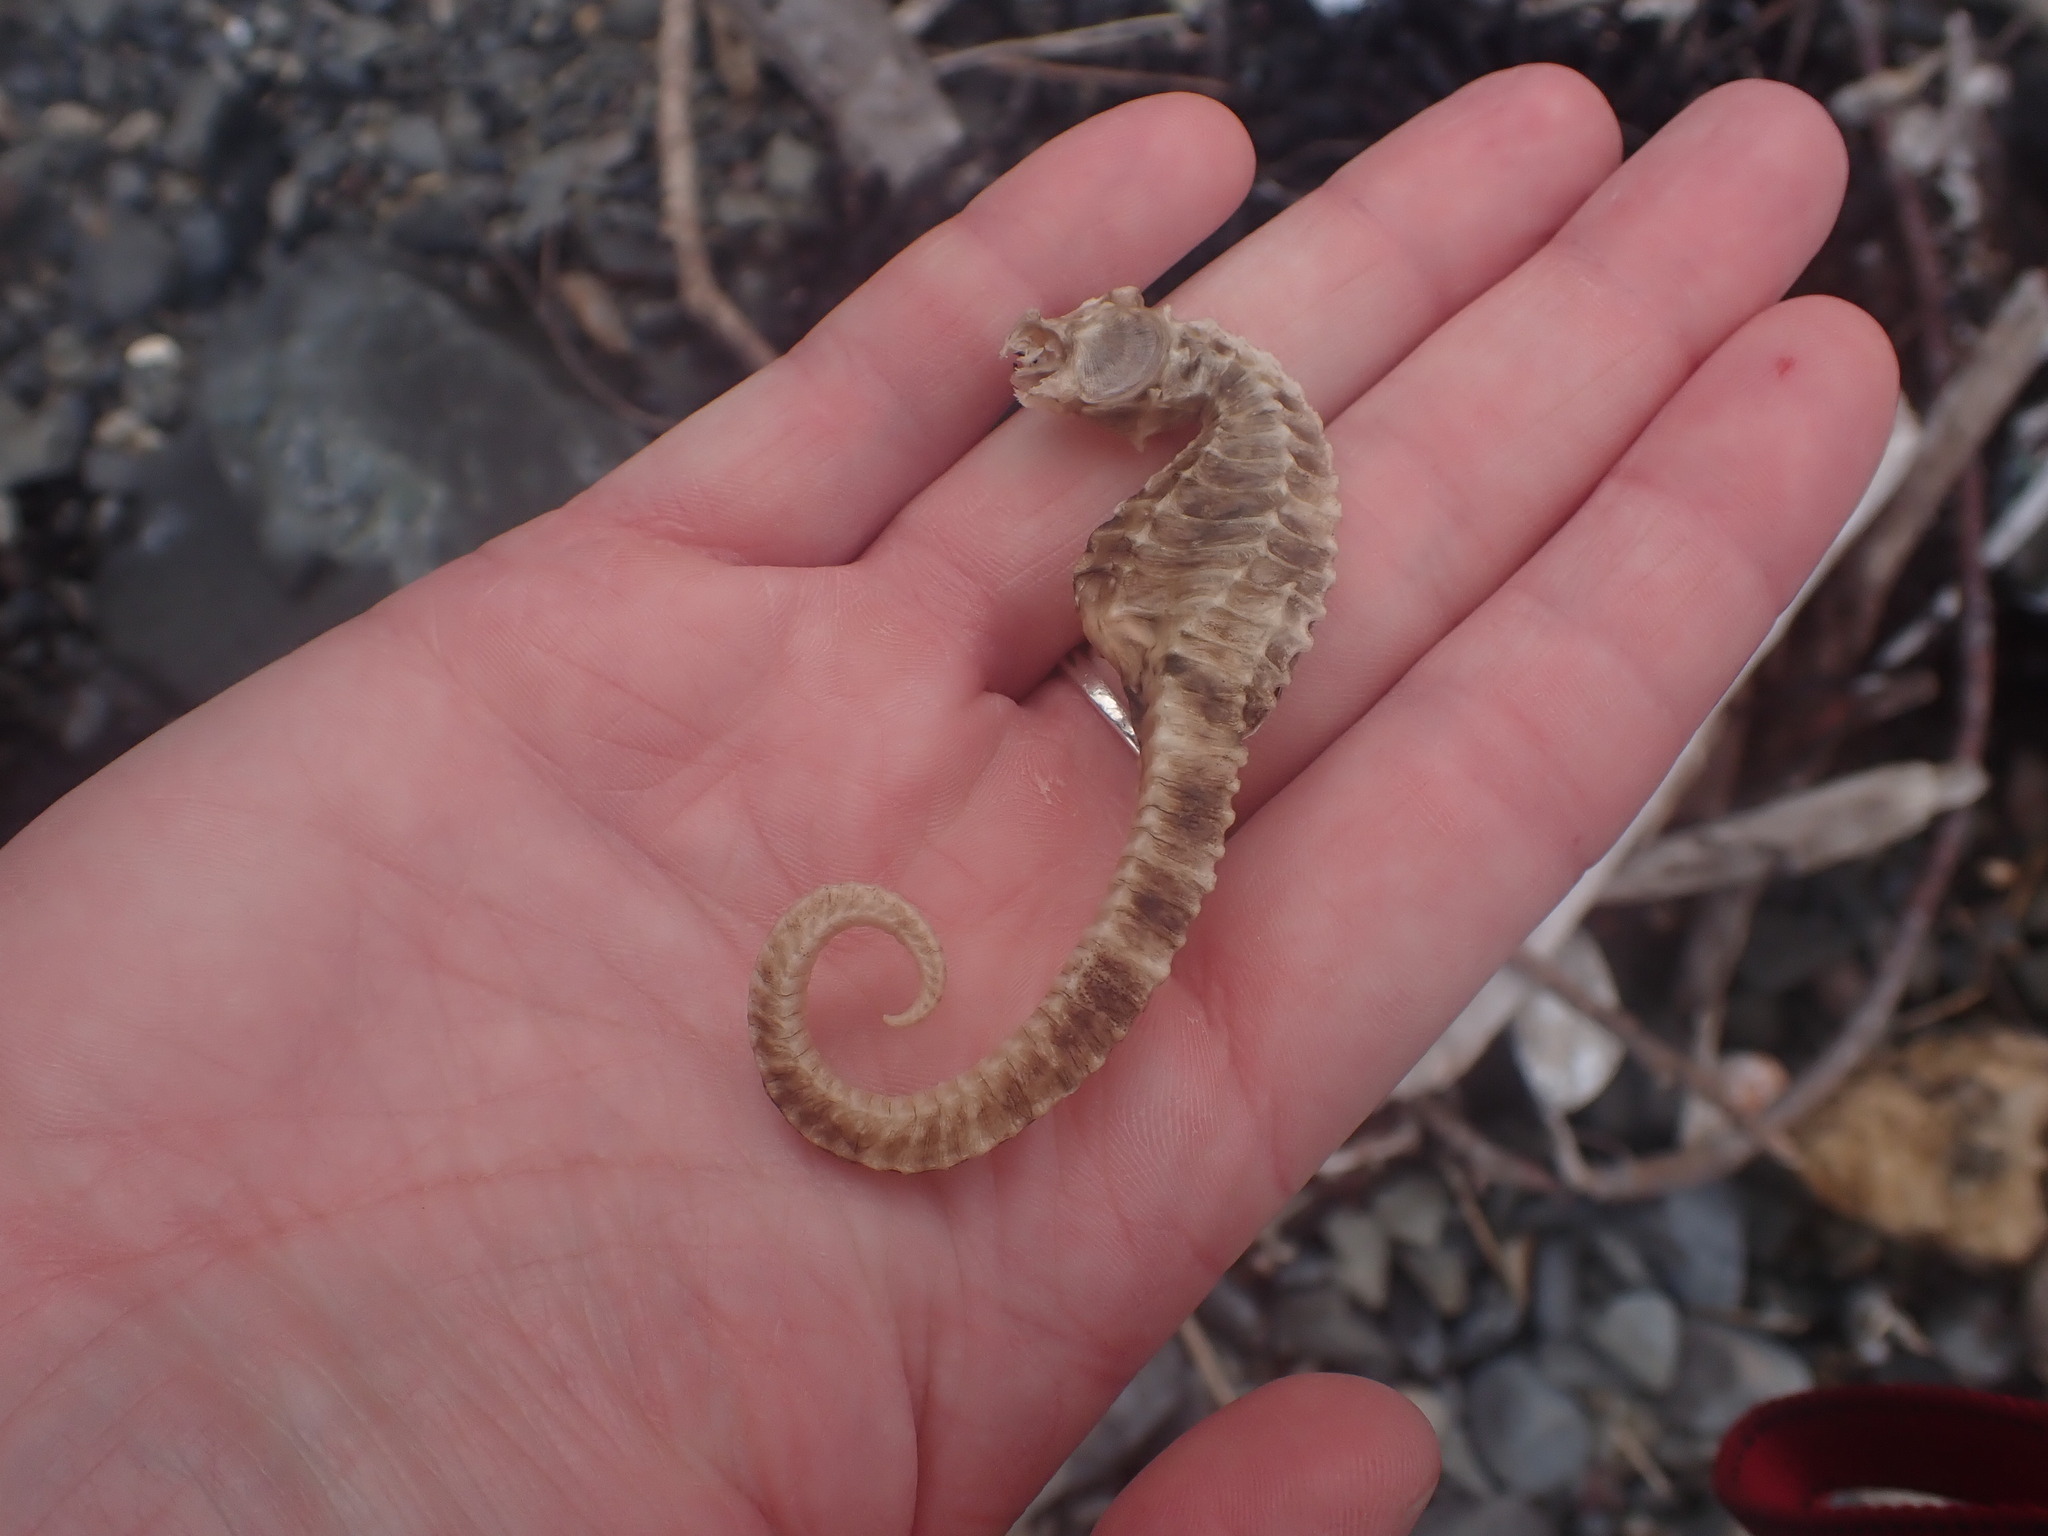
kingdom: Animalia
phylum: Chordata
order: Syngnathiformes
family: Syngnathidae
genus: Hippocampus
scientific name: Hippocampus abdominalis
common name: Big-belly seahorse
